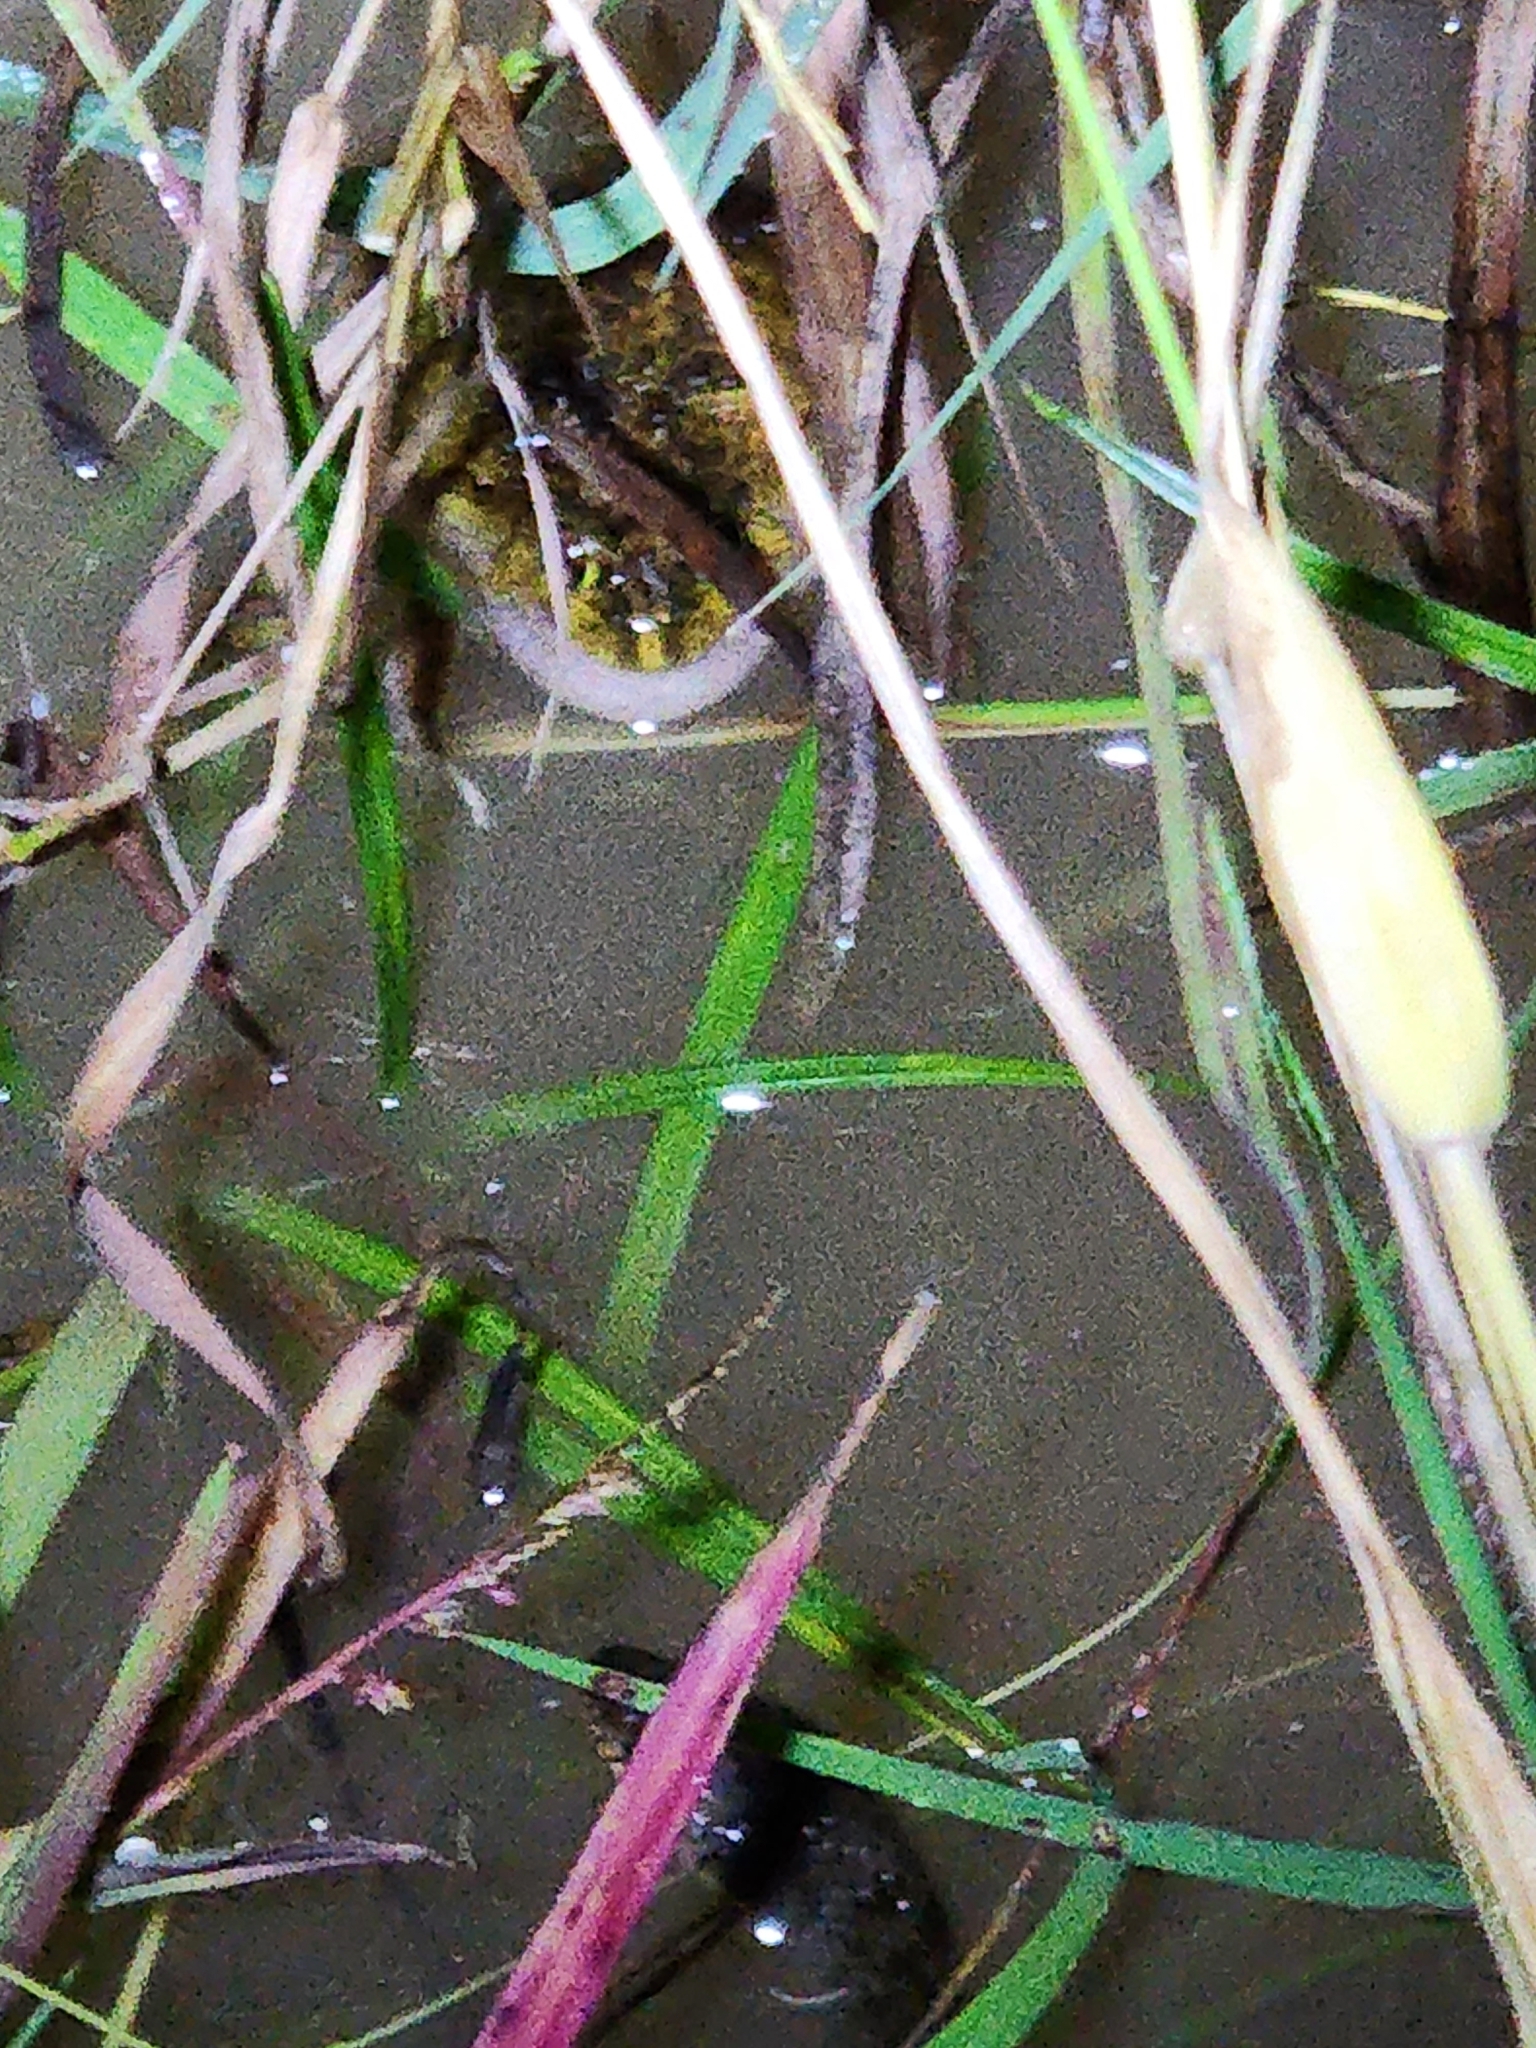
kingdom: Animalia
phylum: Chordata
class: Amphibia
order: Anura
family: Limnodynastidae
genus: Platyplectrum
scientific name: Platyplectrum ornatum
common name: Ornate burrowing frog
